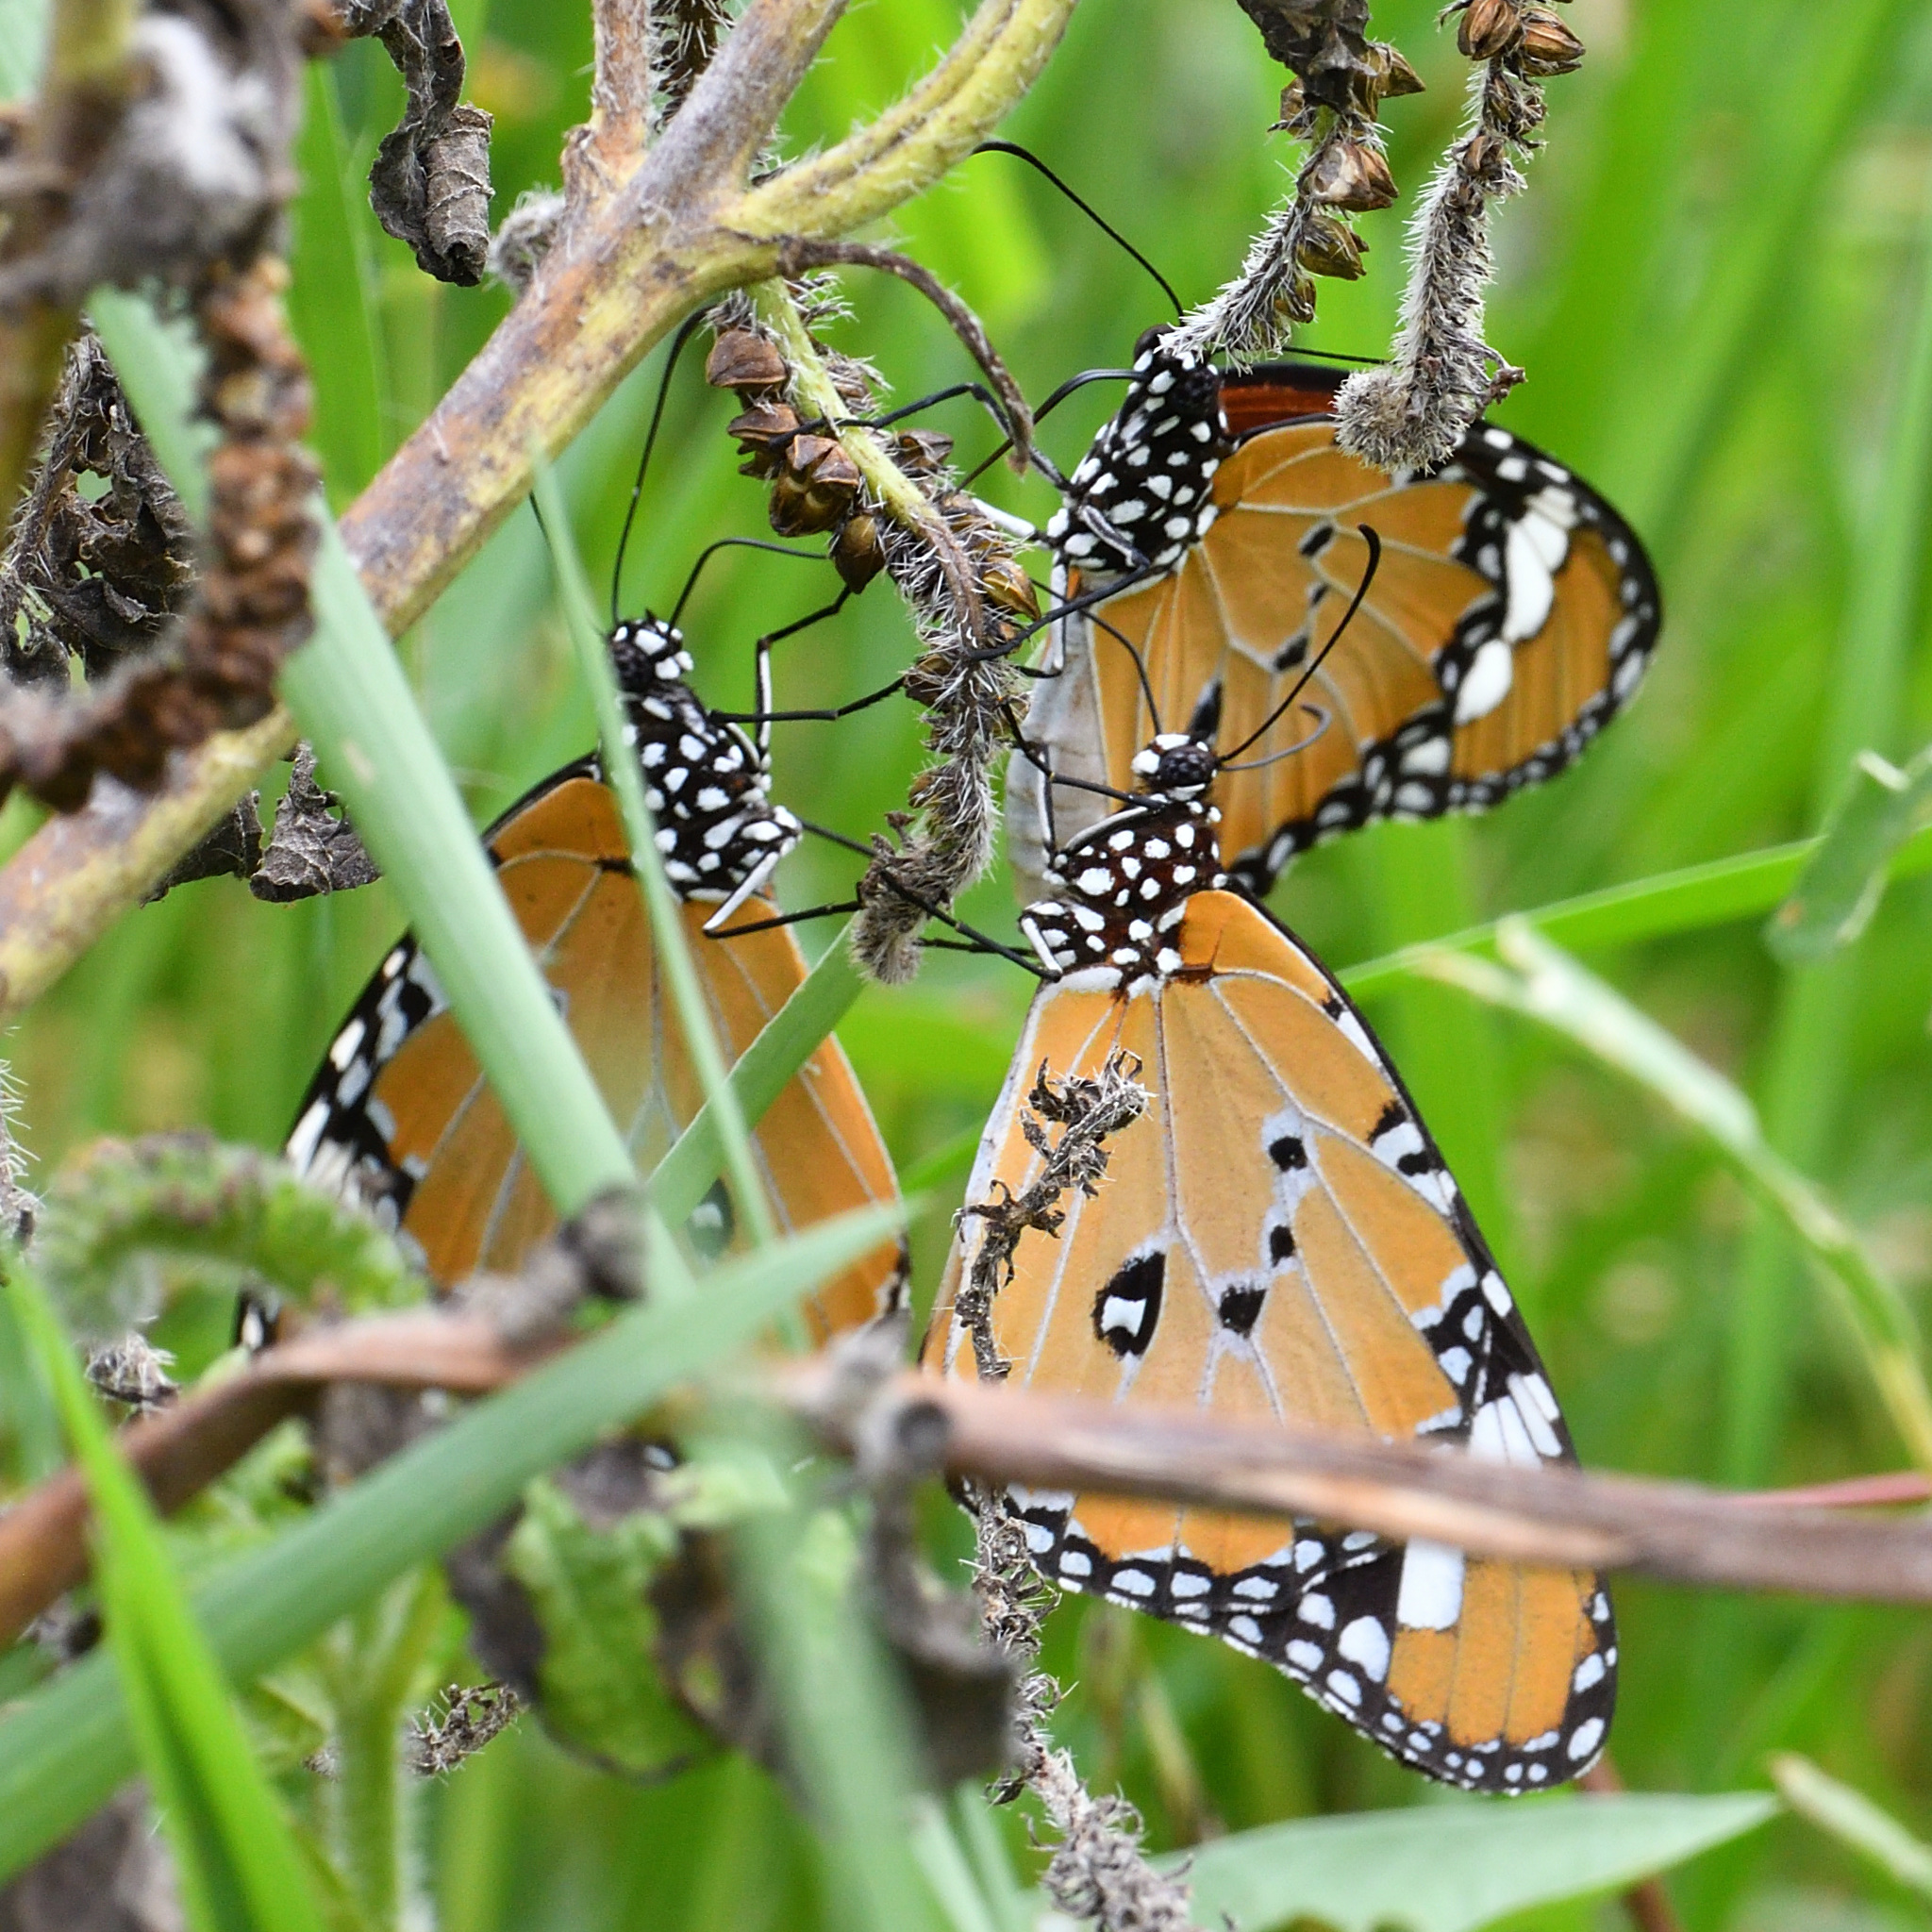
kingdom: Animalia
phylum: Arthropoda
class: Insecta
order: Lepidoptera
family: Nymphalidae
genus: Danaus
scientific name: Danaus chrysippus
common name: Plain tiger
